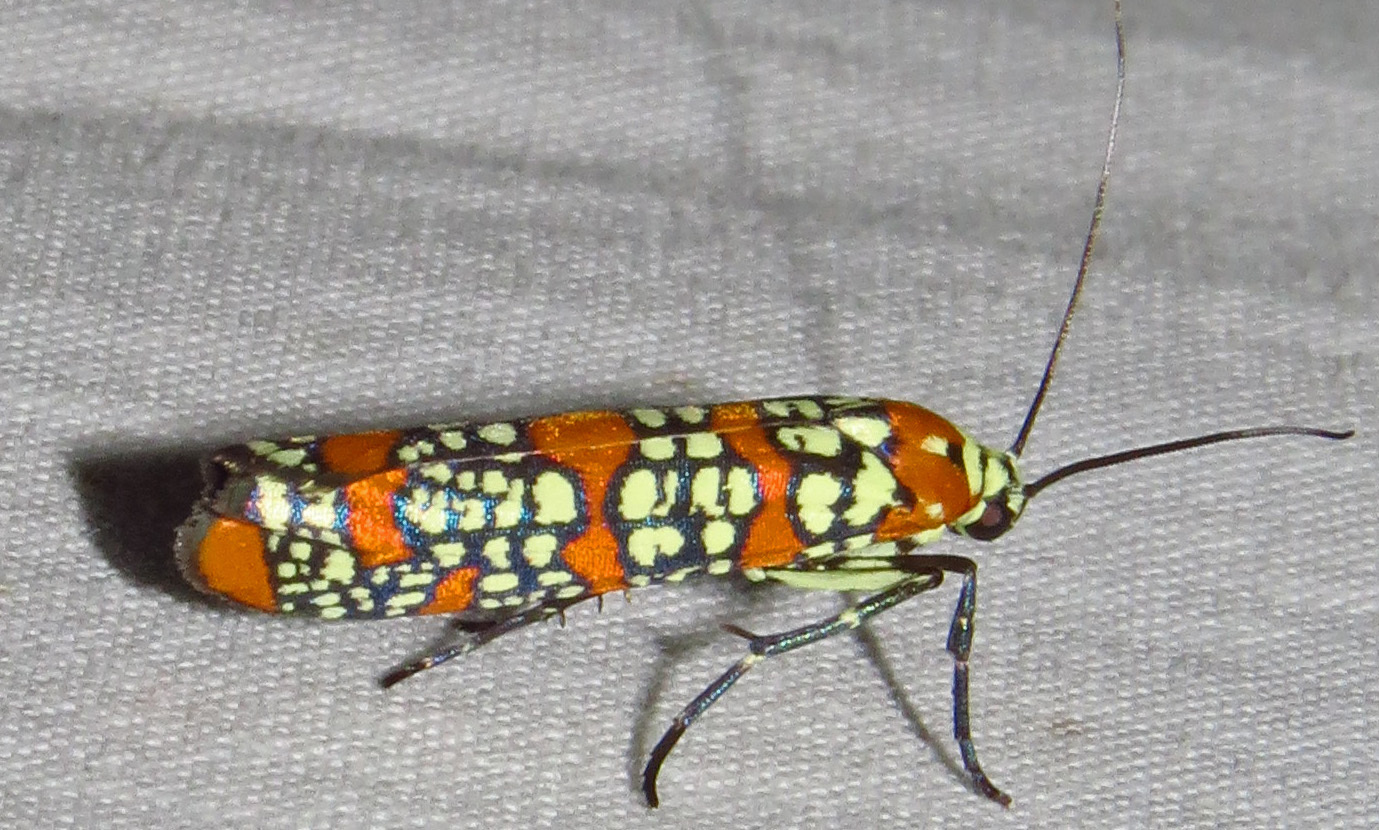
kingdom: Animalia
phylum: Arthropoda
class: Insecta
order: Lepidoptera
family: Attevidae
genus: Atteva
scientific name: Atteva punctella
